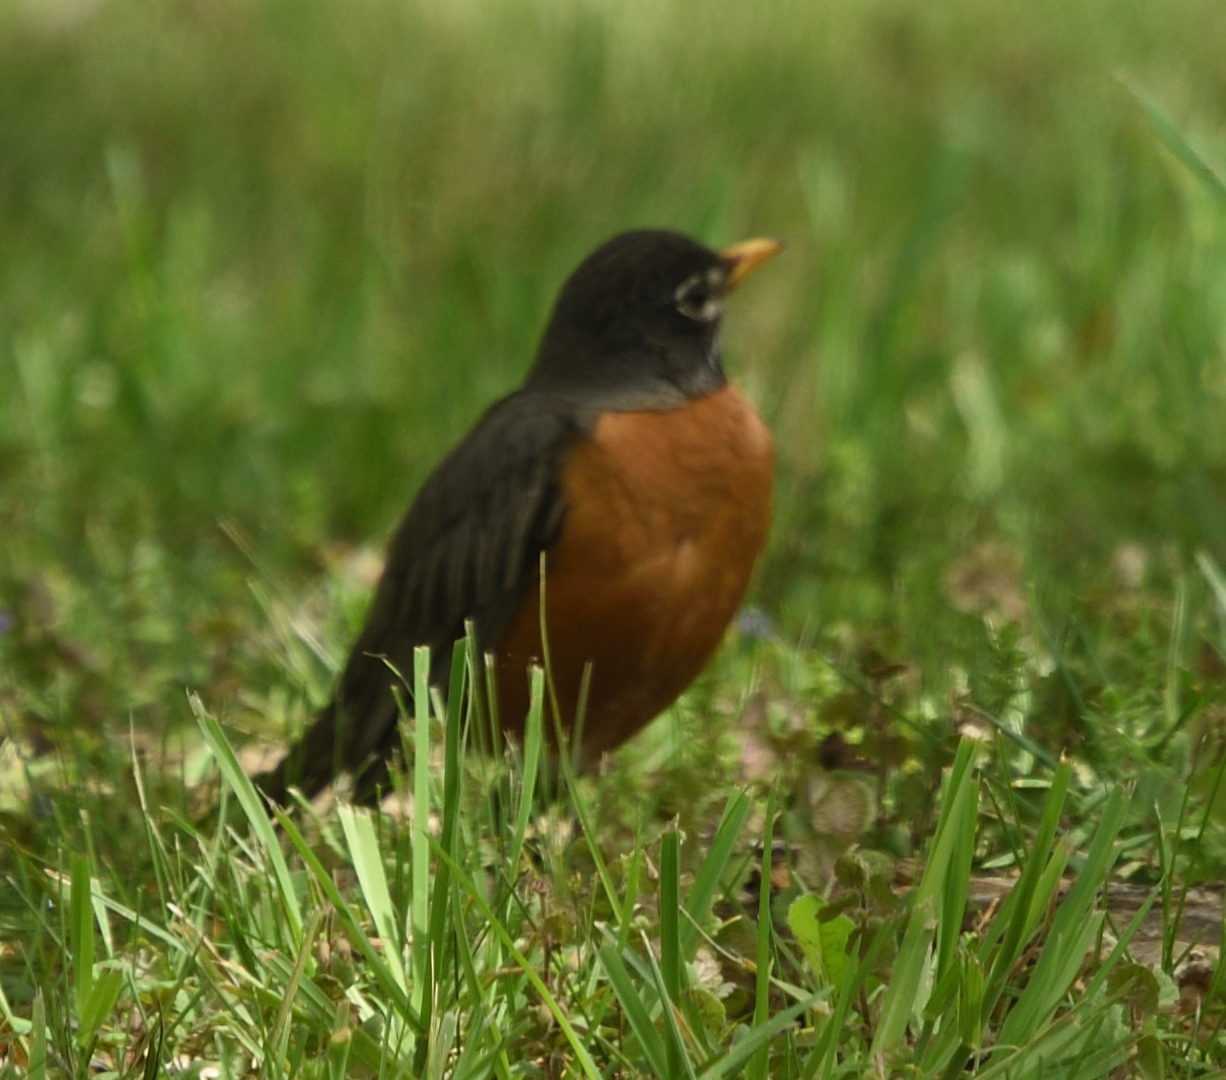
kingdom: Animalia
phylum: Chordata
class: Aves
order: Passeriformes
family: Turdidae
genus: Turdus
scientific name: Turdus migratorius
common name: American robin
